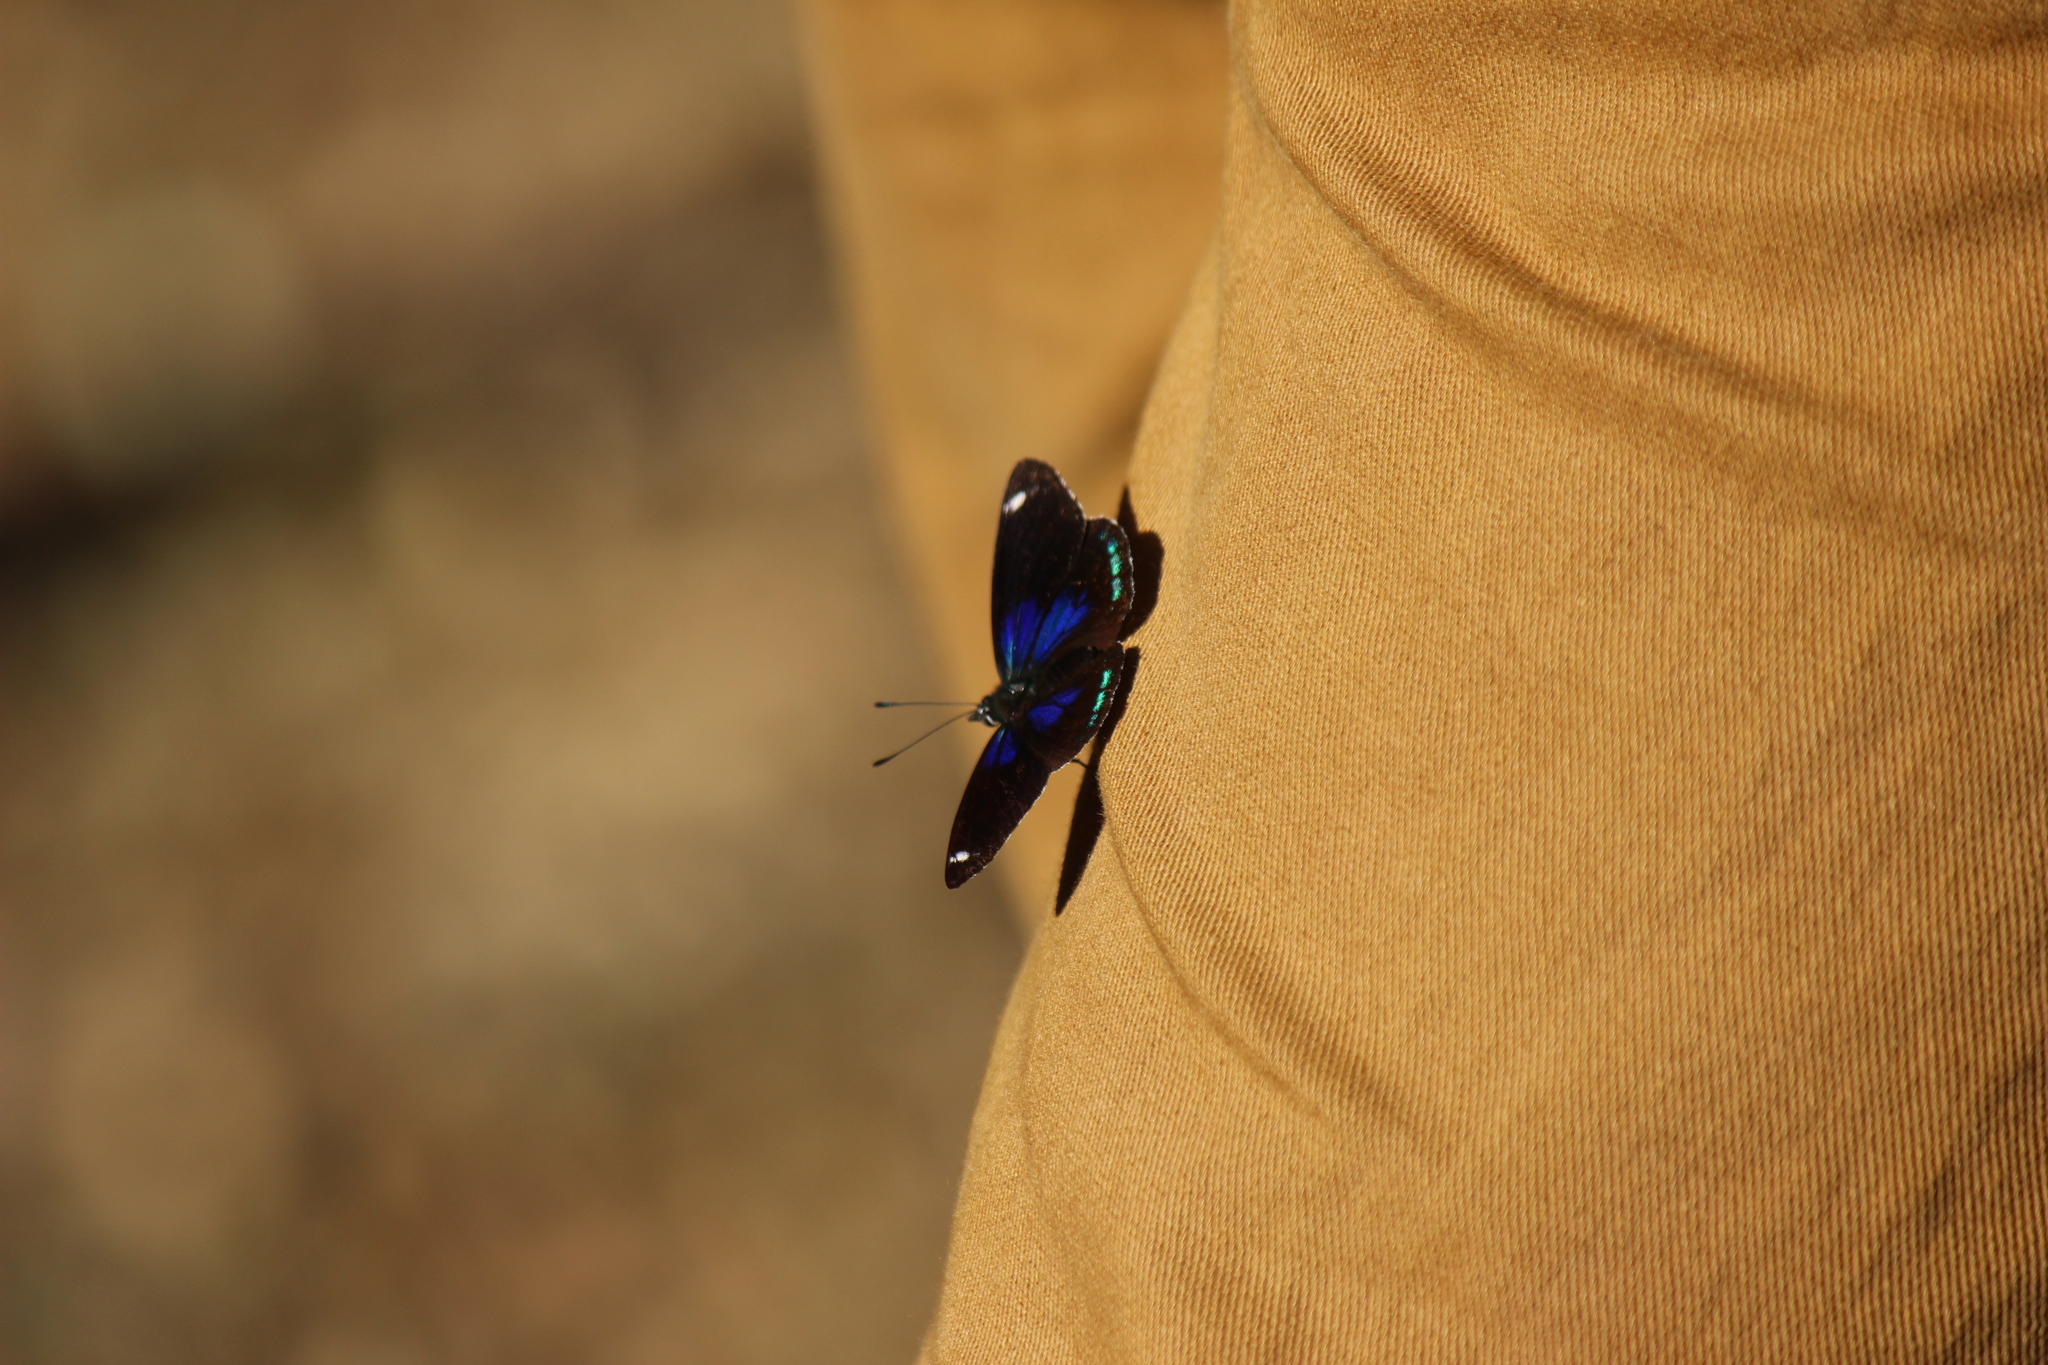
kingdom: Animalia
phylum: Arthropoda
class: Insecta
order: Lepidoptera
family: Nymphalidae
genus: Diaethria
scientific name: Diaethria candrena
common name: Number eighty
